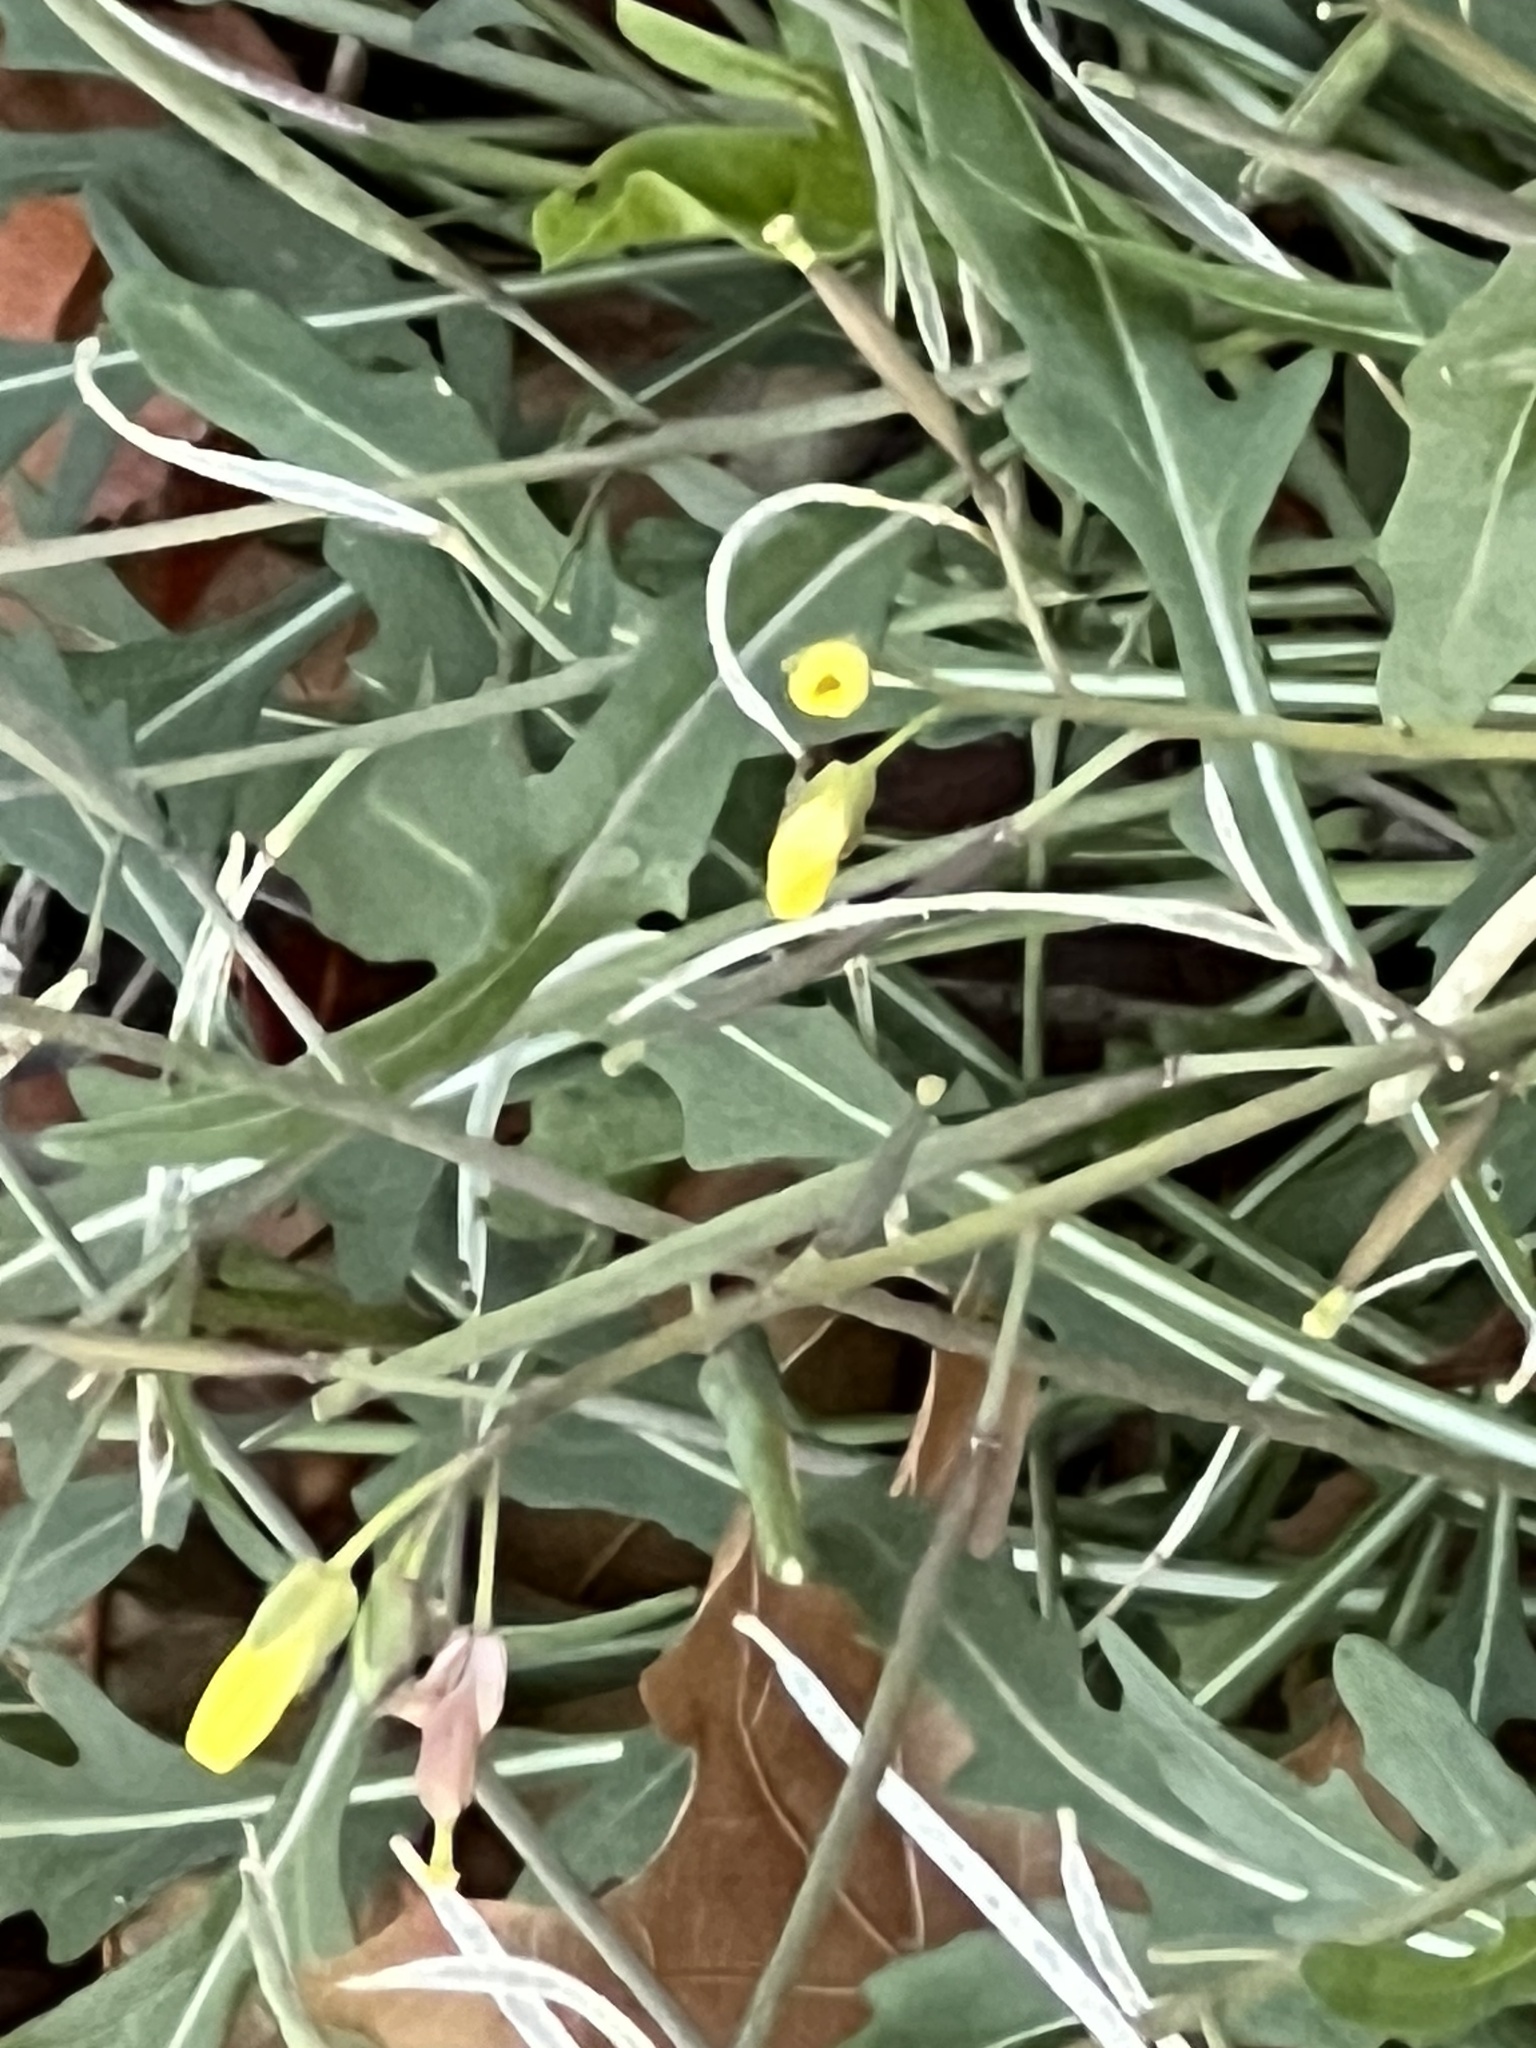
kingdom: Plantae
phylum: Tracheophyta
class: Magnoliopsida
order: Brassicales
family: Brassicaceae
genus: Diplotaxis
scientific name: Diplotaxis muralis
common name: Annual wall-rocket
